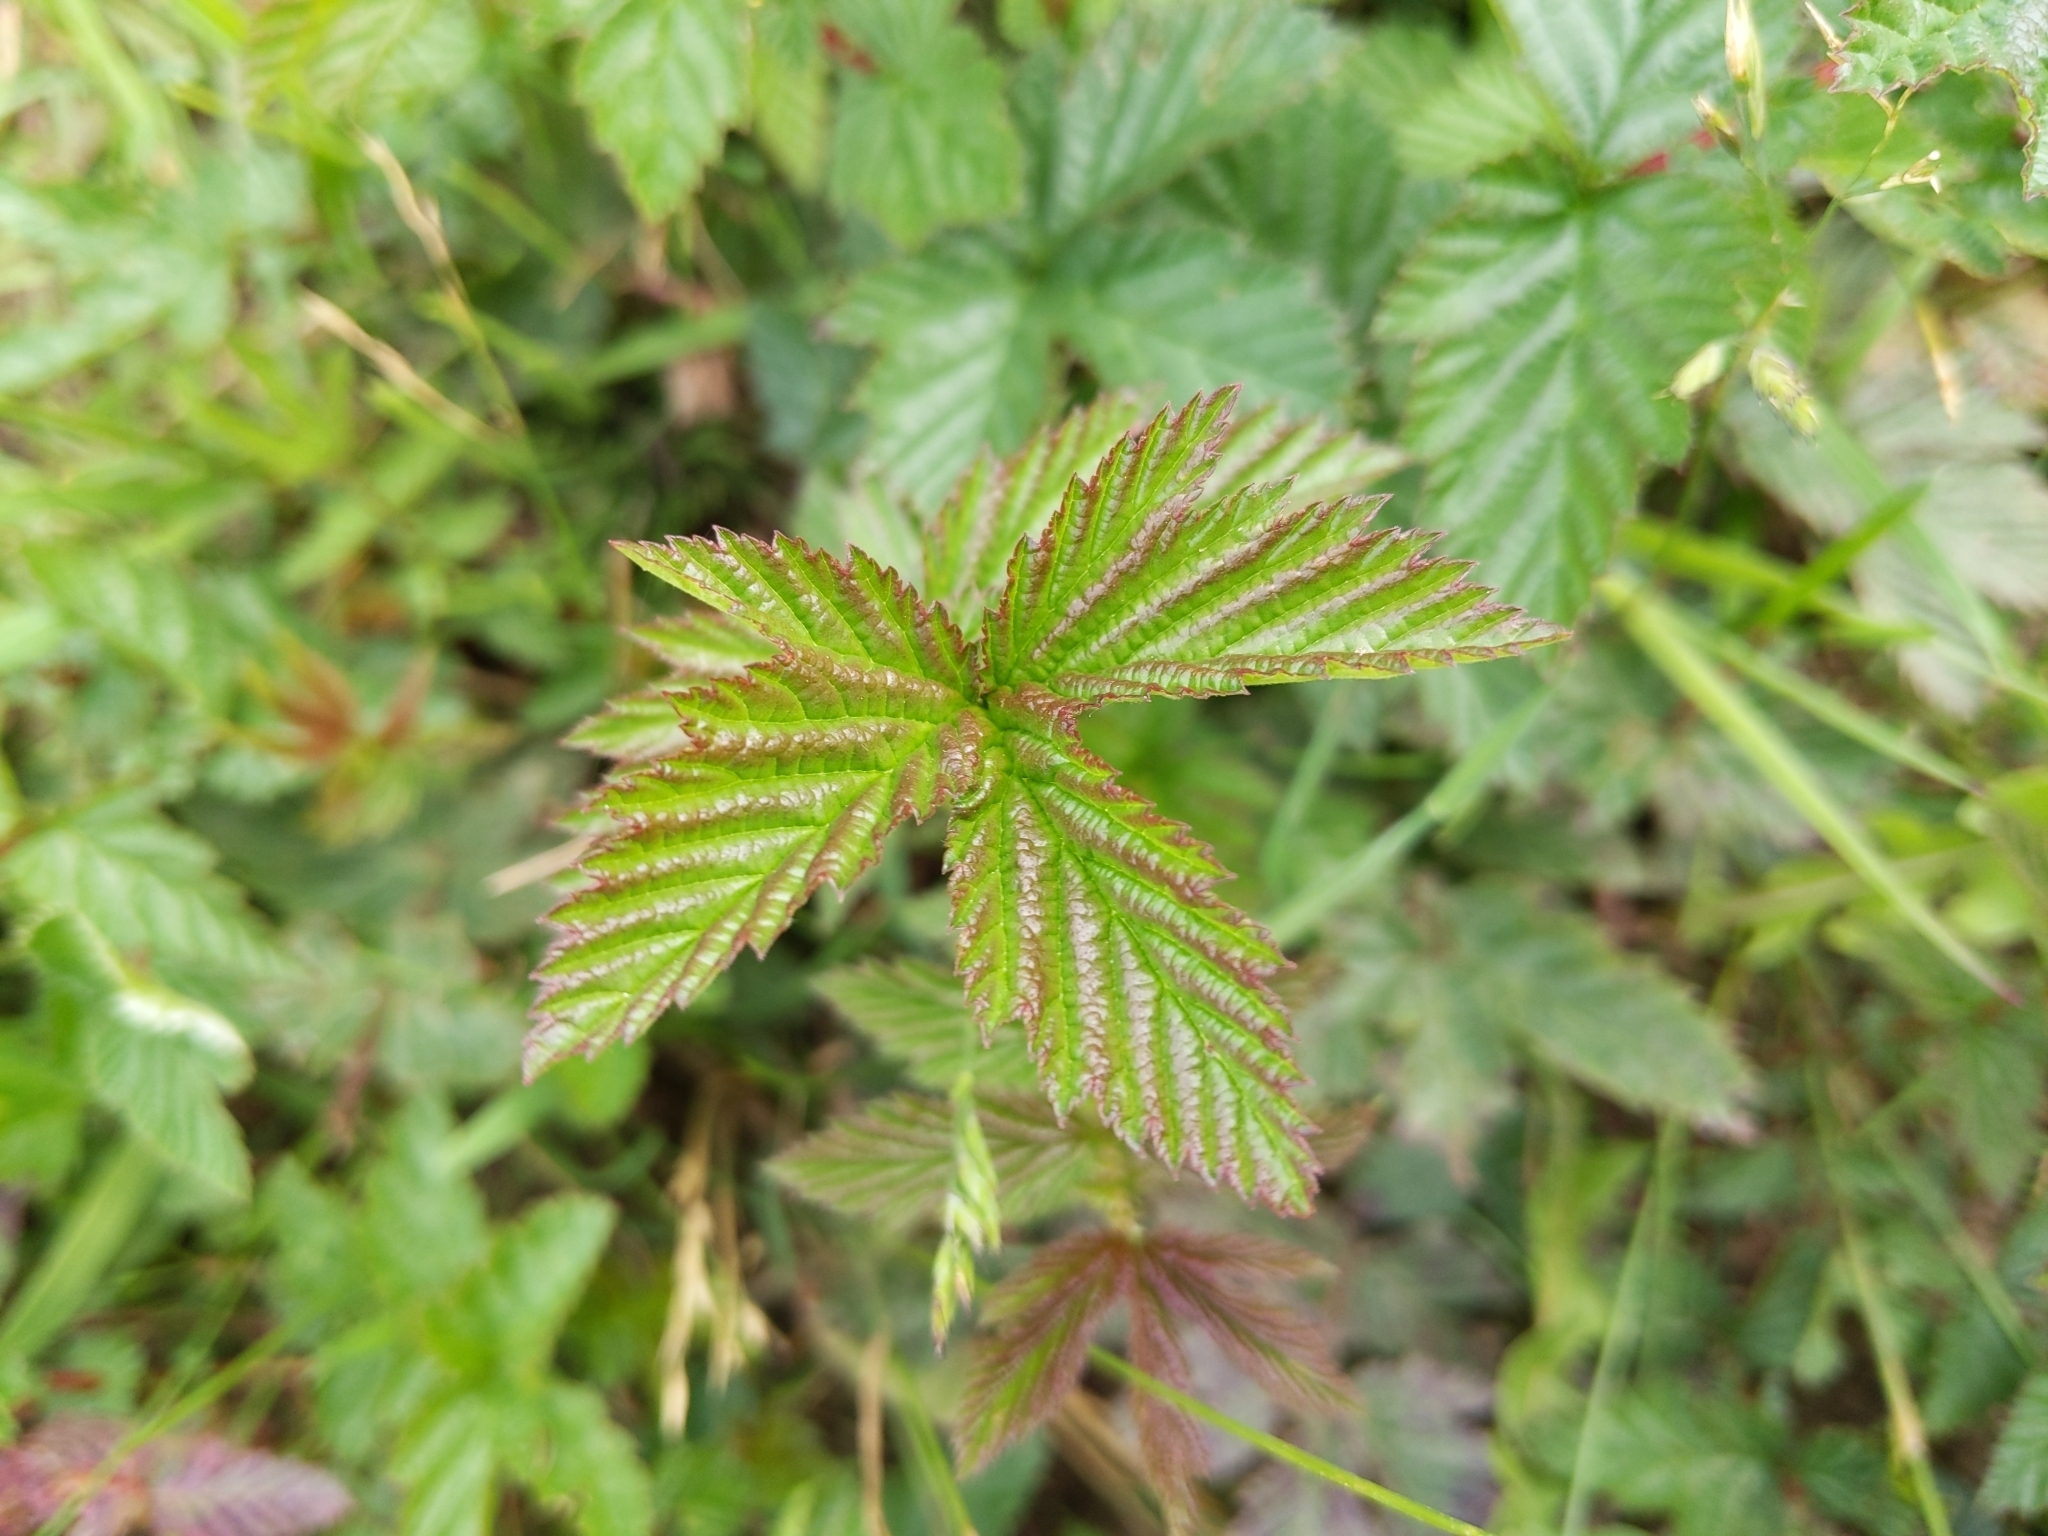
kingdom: Plantae
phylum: Tracheophyta
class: Magnoliopsida
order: Rosales
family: Rosaceae
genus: Filipendula
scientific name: Filipendula ulmaria
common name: Meadowsweet
